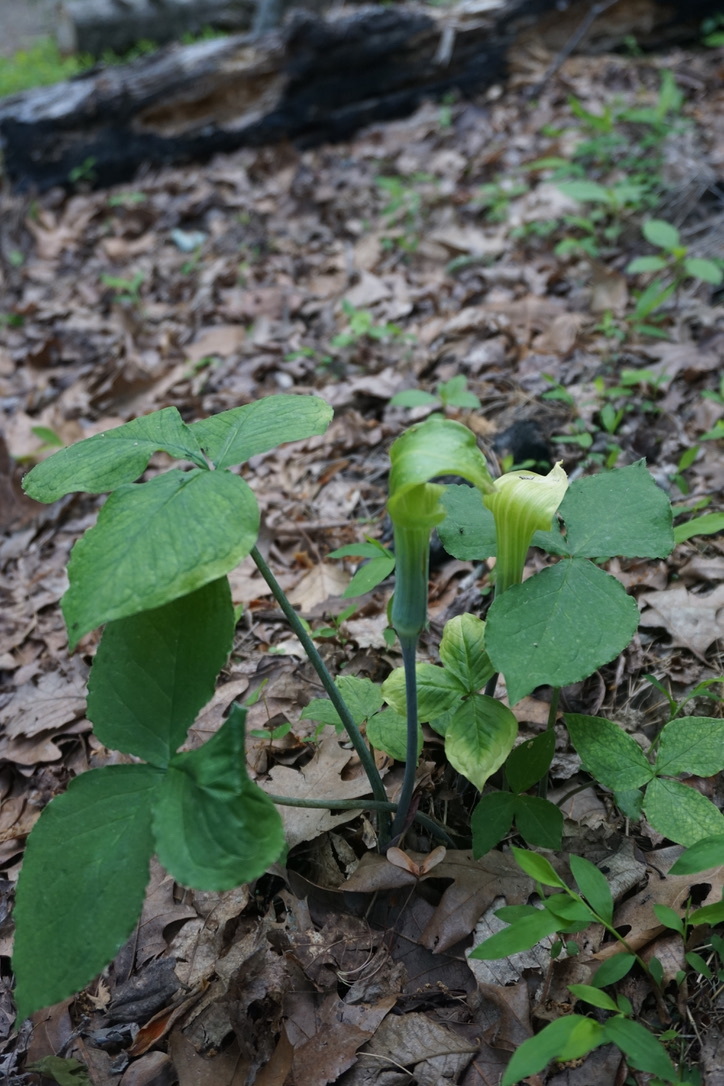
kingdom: Plantae
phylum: Tracheophyta
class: Liliopsida
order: Alismatales
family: Araceae
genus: Arisaema
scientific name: Arisaema triphyllum
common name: Jack-in-the-pulpit
